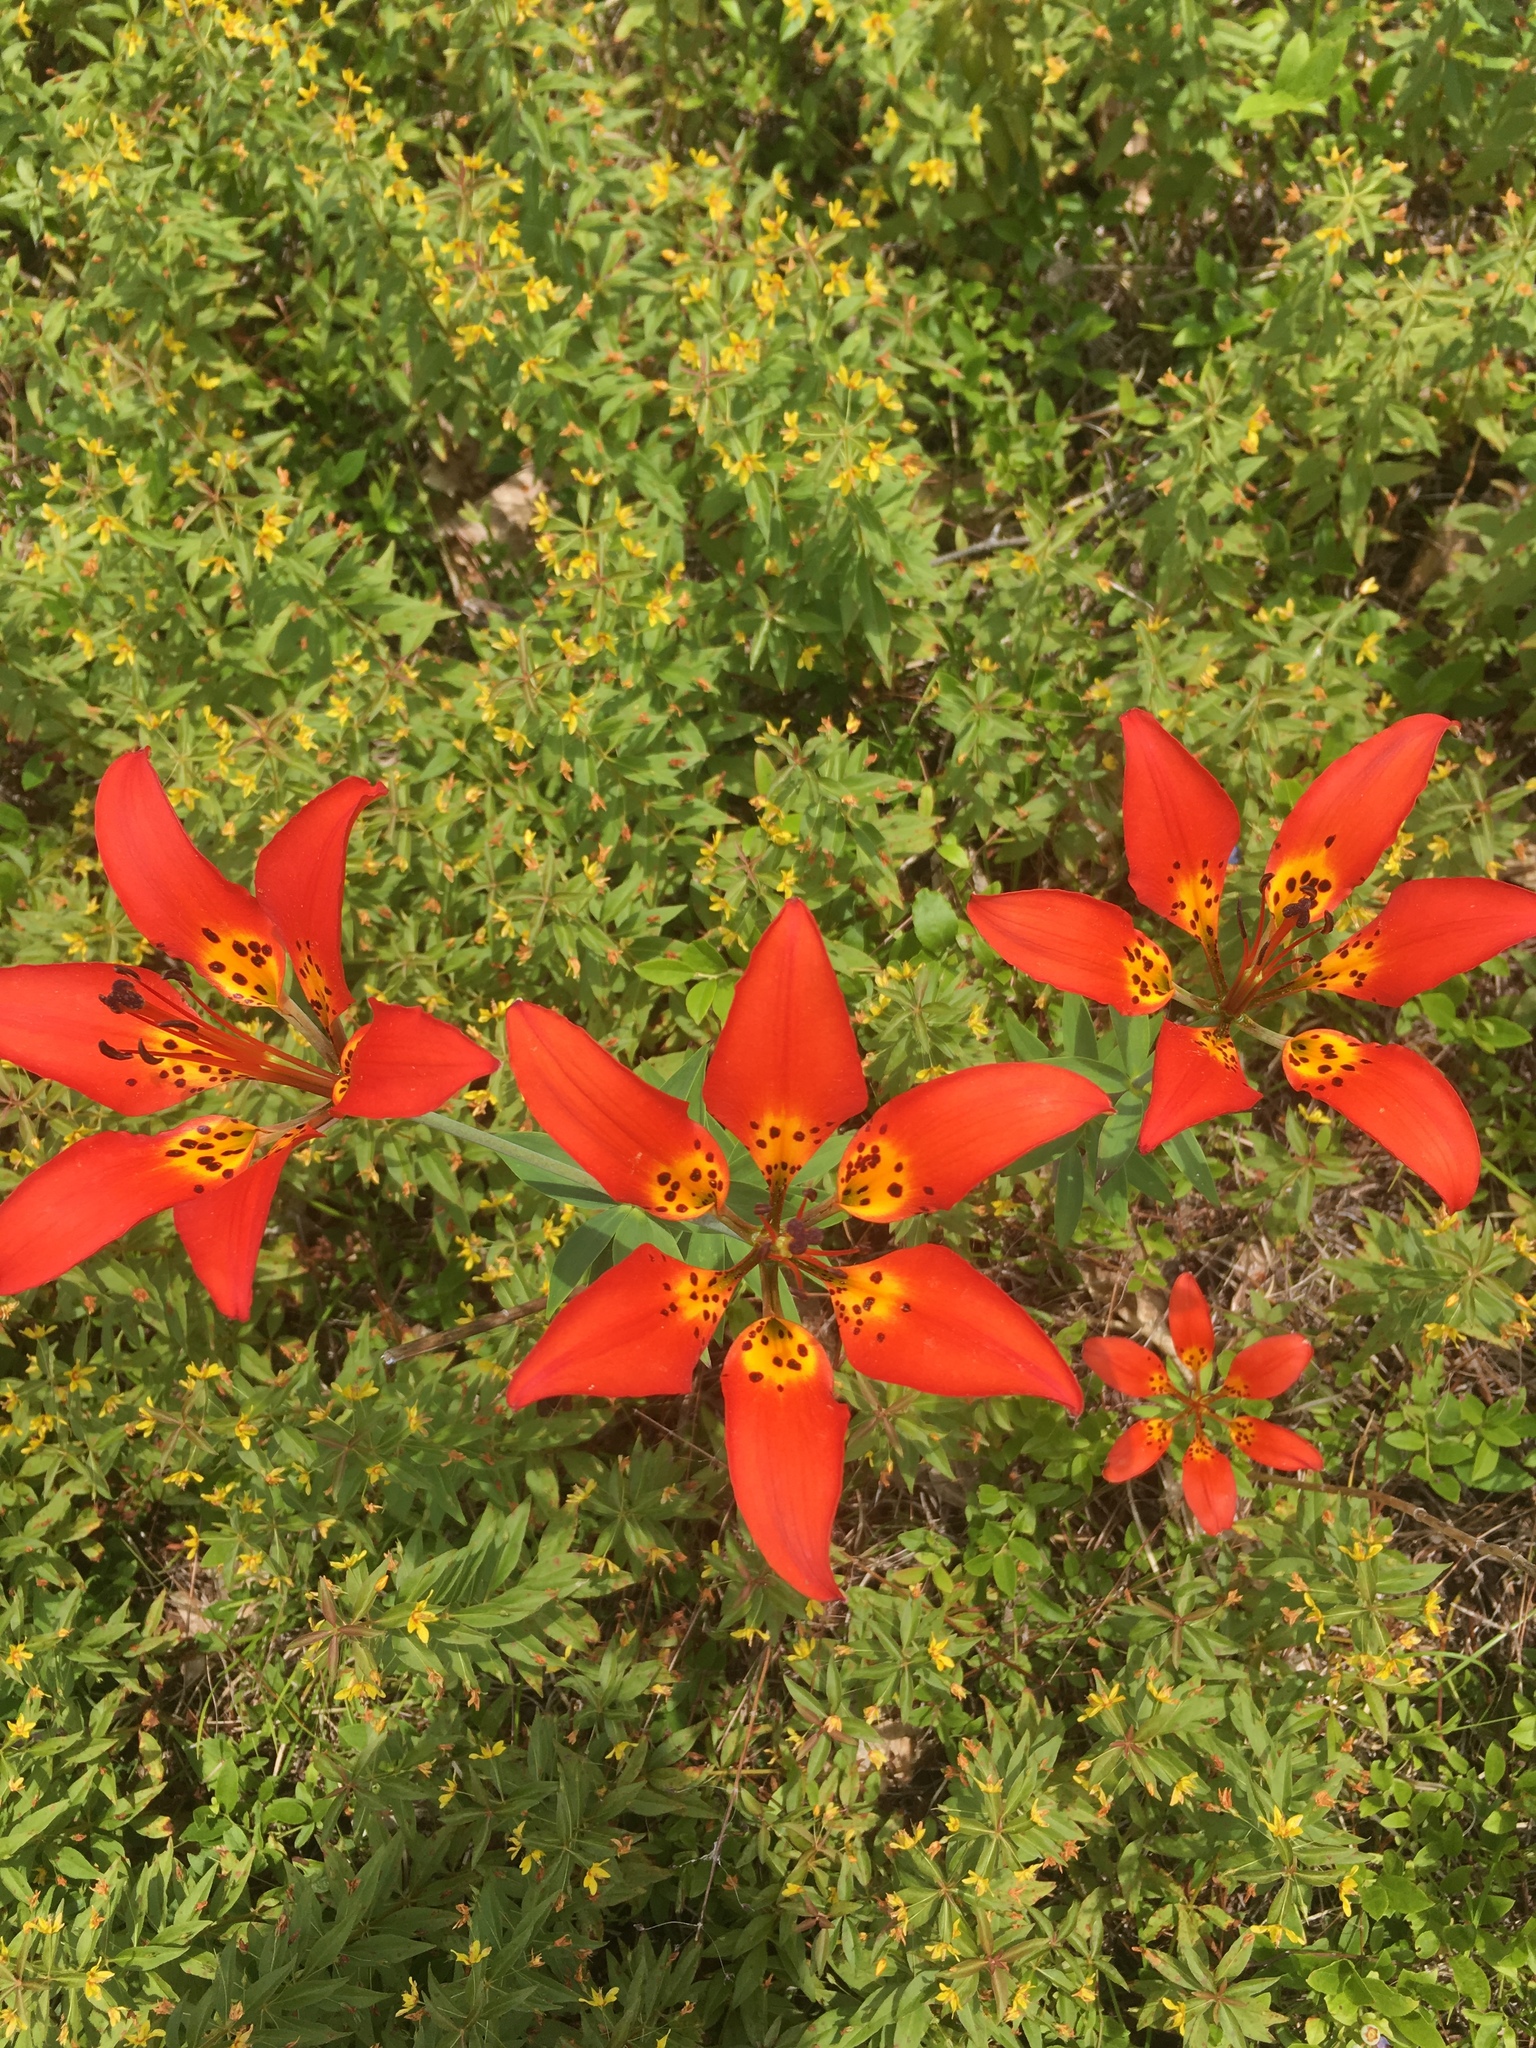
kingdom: Plantae
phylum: Tracheophyta
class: Liliopsida
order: Liliales
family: Liliaceae
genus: Lilium
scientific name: Lilium philadelphicum
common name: Red lily
